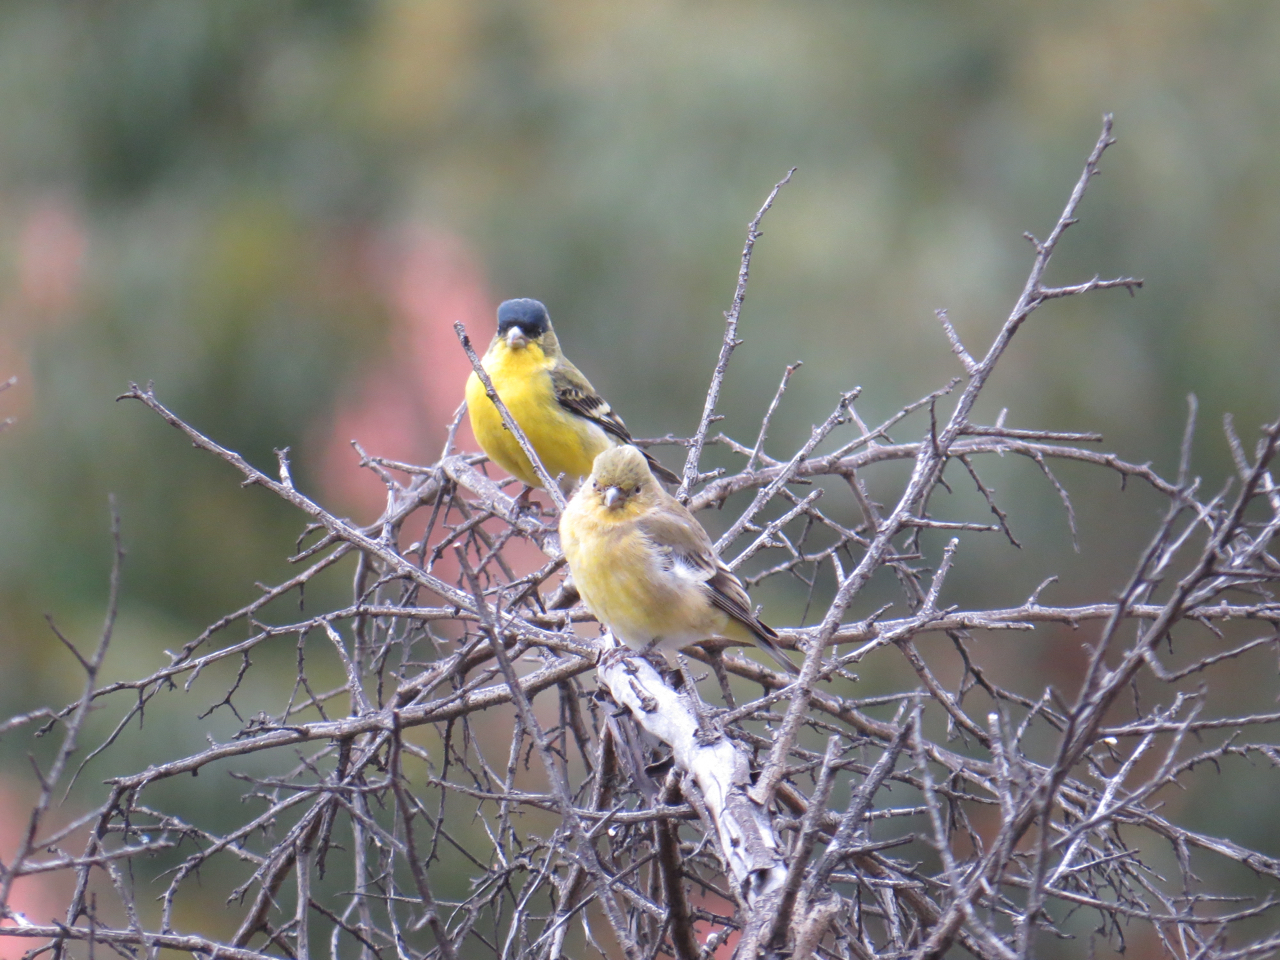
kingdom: Animalia
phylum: Chordata
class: Aves
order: Passeriformes
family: Fringillidae
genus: Spinus
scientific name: Spinus psaltria
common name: Lesser goldfinch
